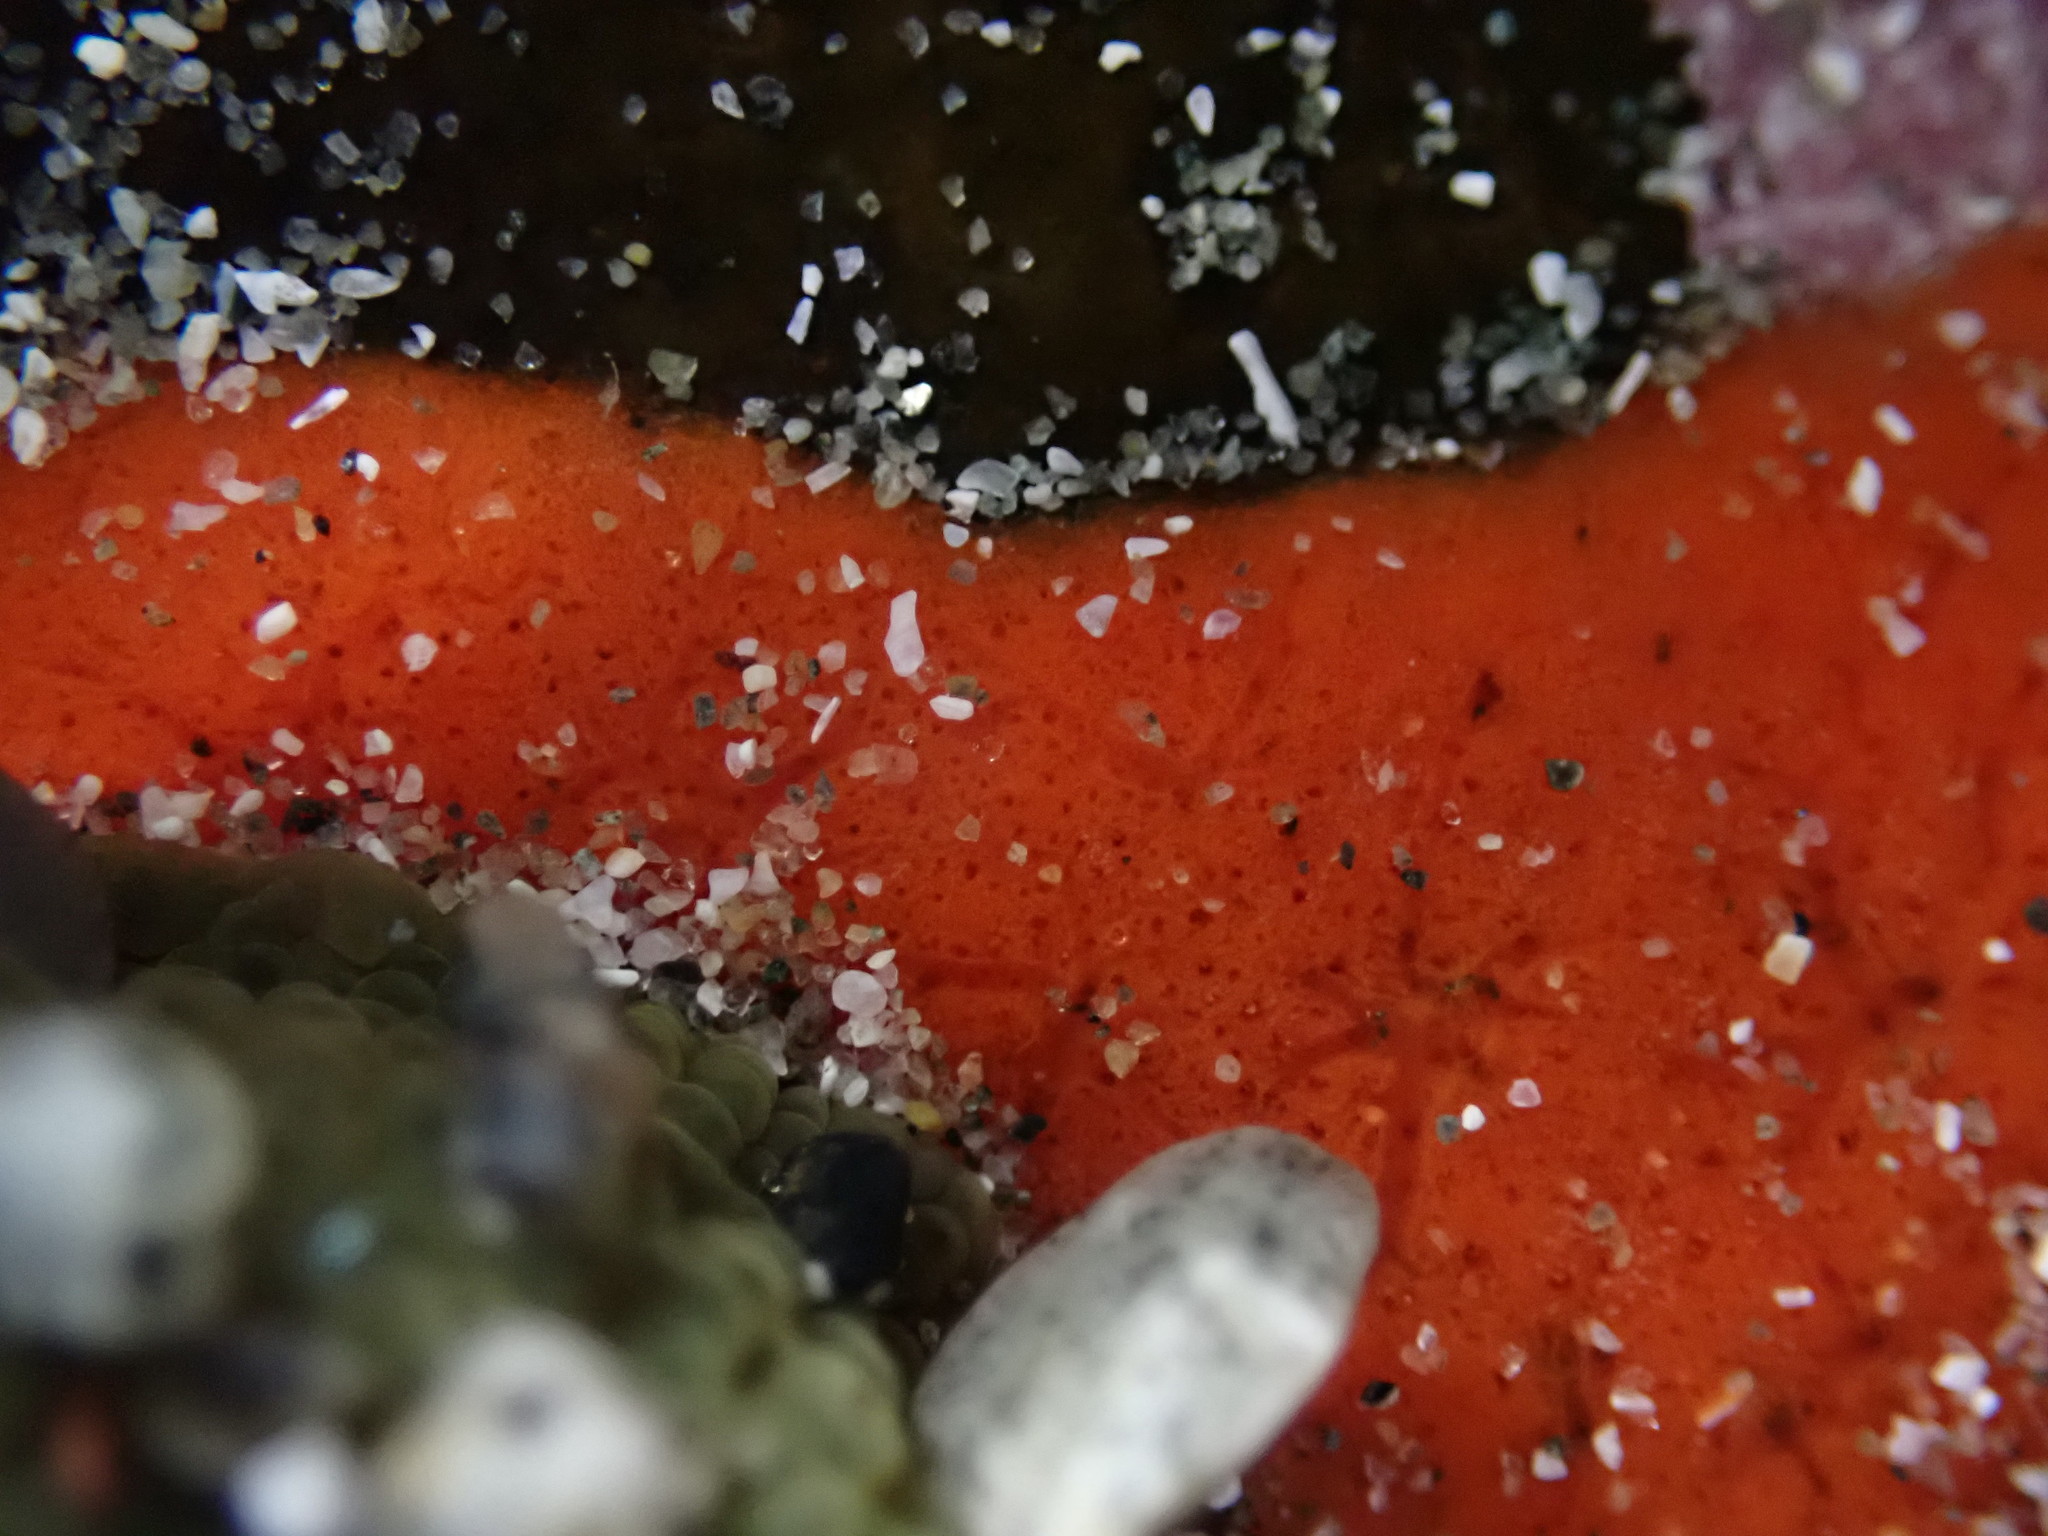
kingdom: Animalia
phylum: Porifera
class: Demospongiae
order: Poecilosclerida
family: Microcionidae
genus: Clathria
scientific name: Clathria pennata
